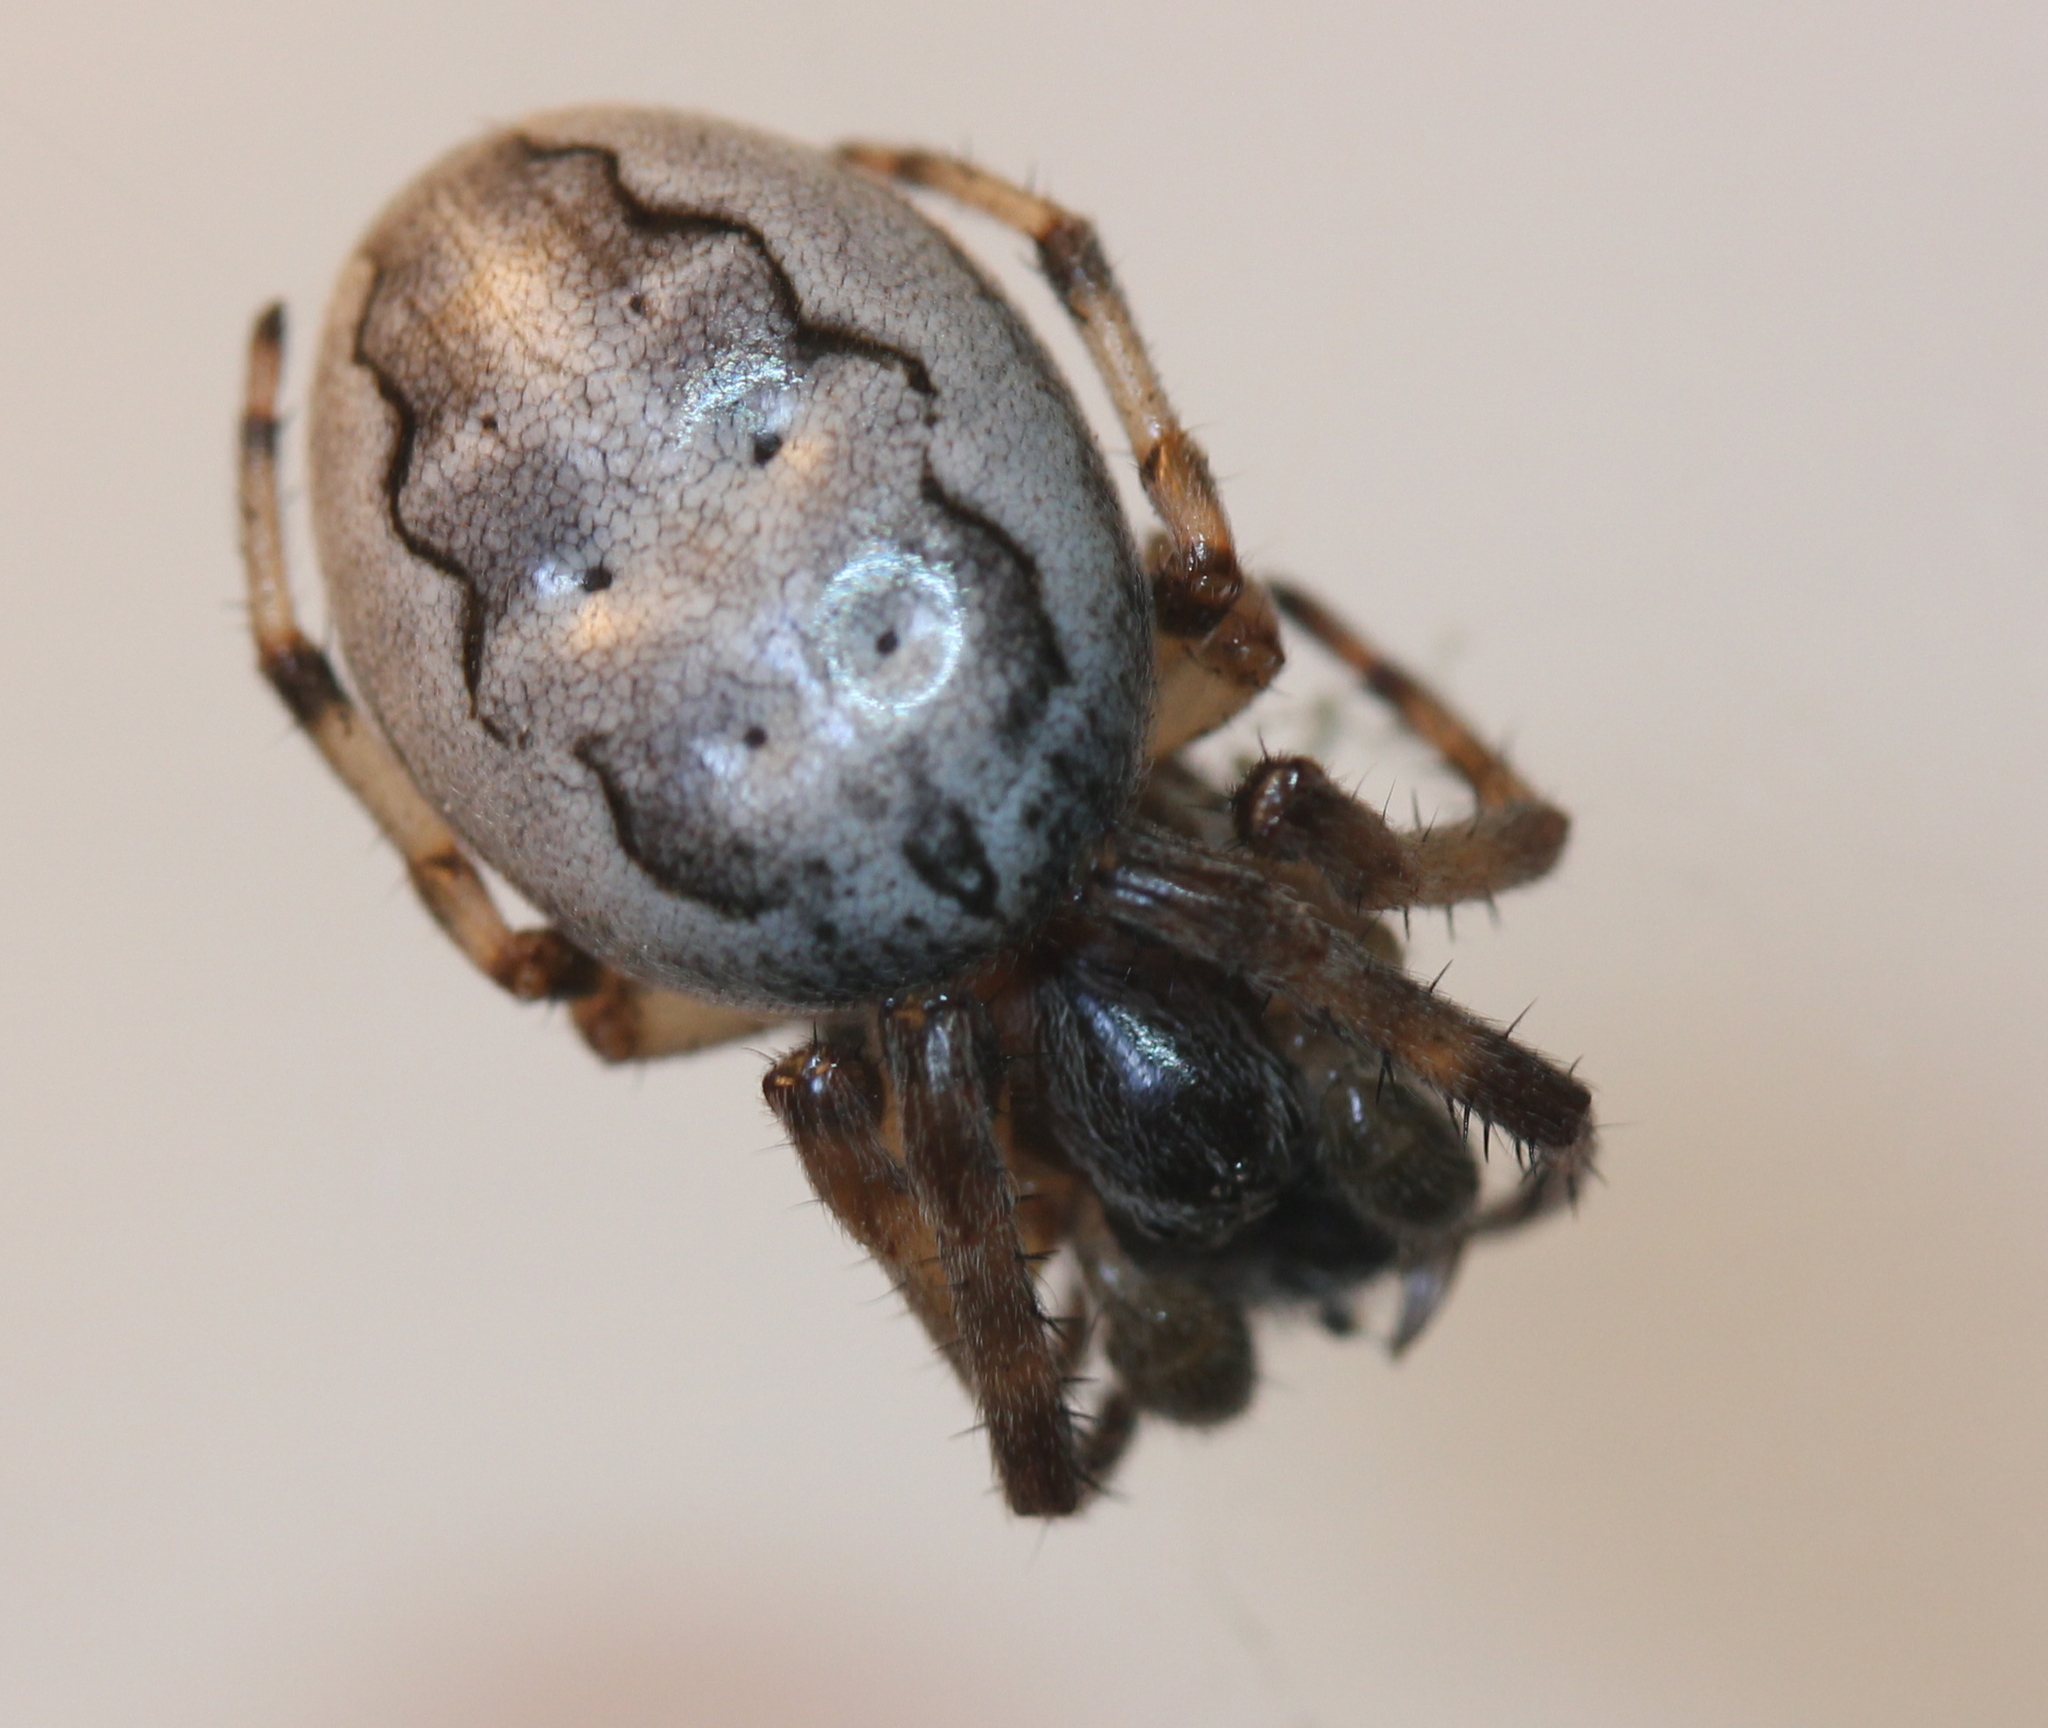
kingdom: Animalia
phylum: Arthropoda
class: Arachnida
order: Araneae
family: Araneidae
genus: Larinioides
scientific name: Larinioides cornutus
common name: Furrow orbweaver
